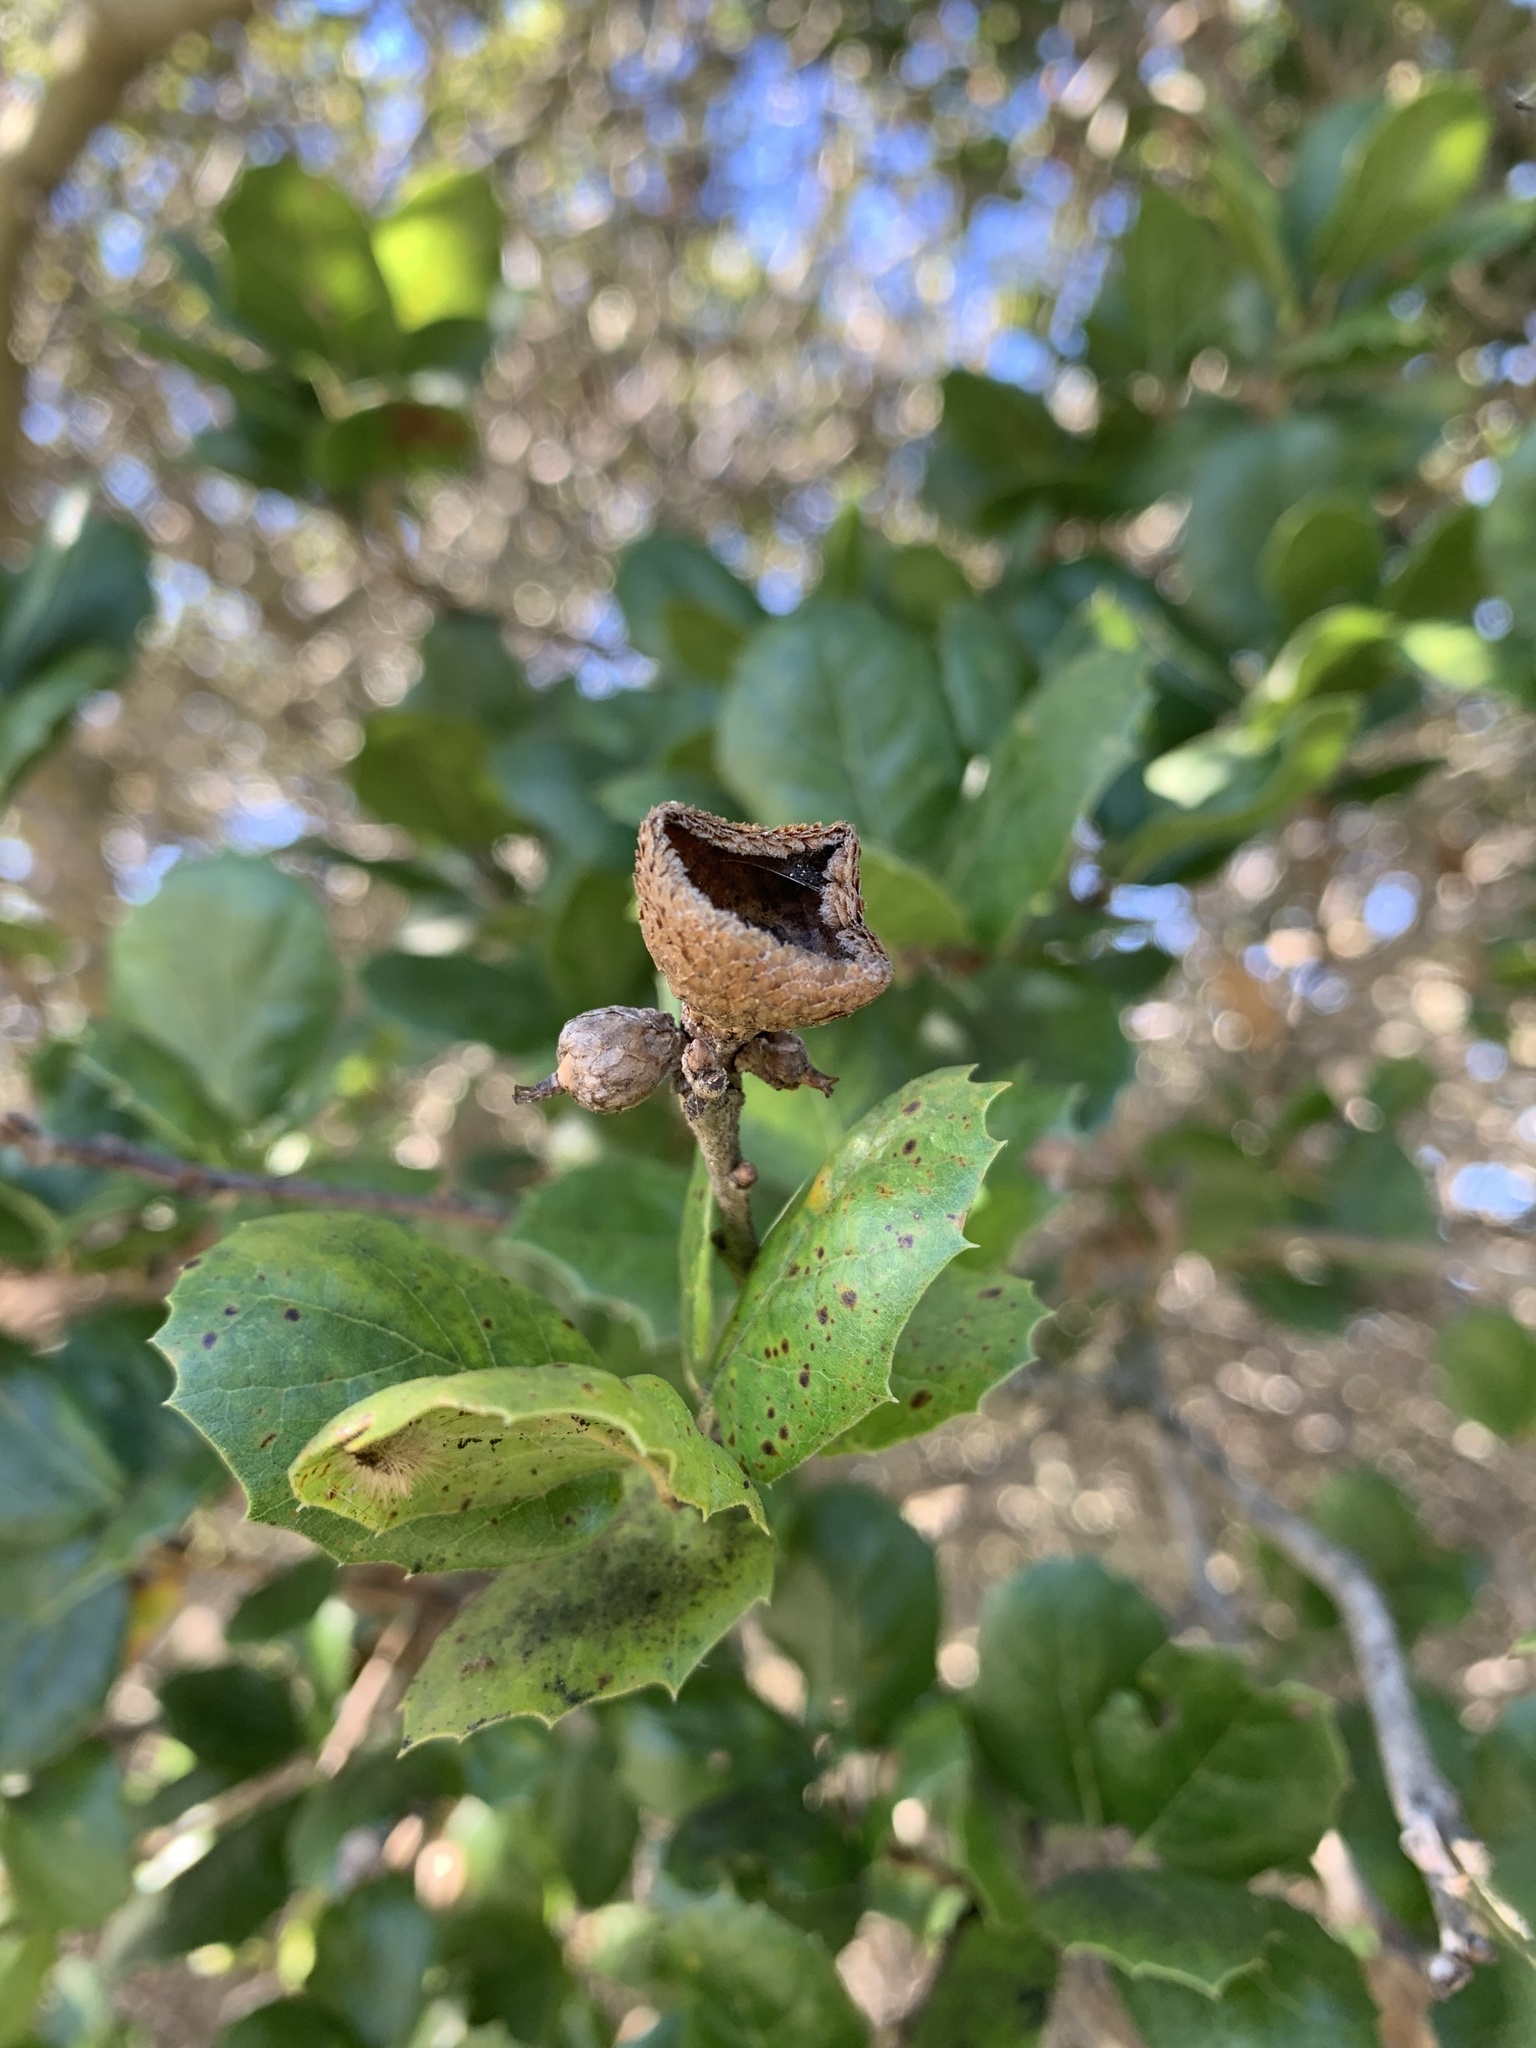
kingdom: Plantae
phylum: Tracheophyta
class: Magnoliopsida
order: Fagales
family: Fagaceae
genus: Quercus
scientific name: Quercus agrifolia
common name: California live oak
